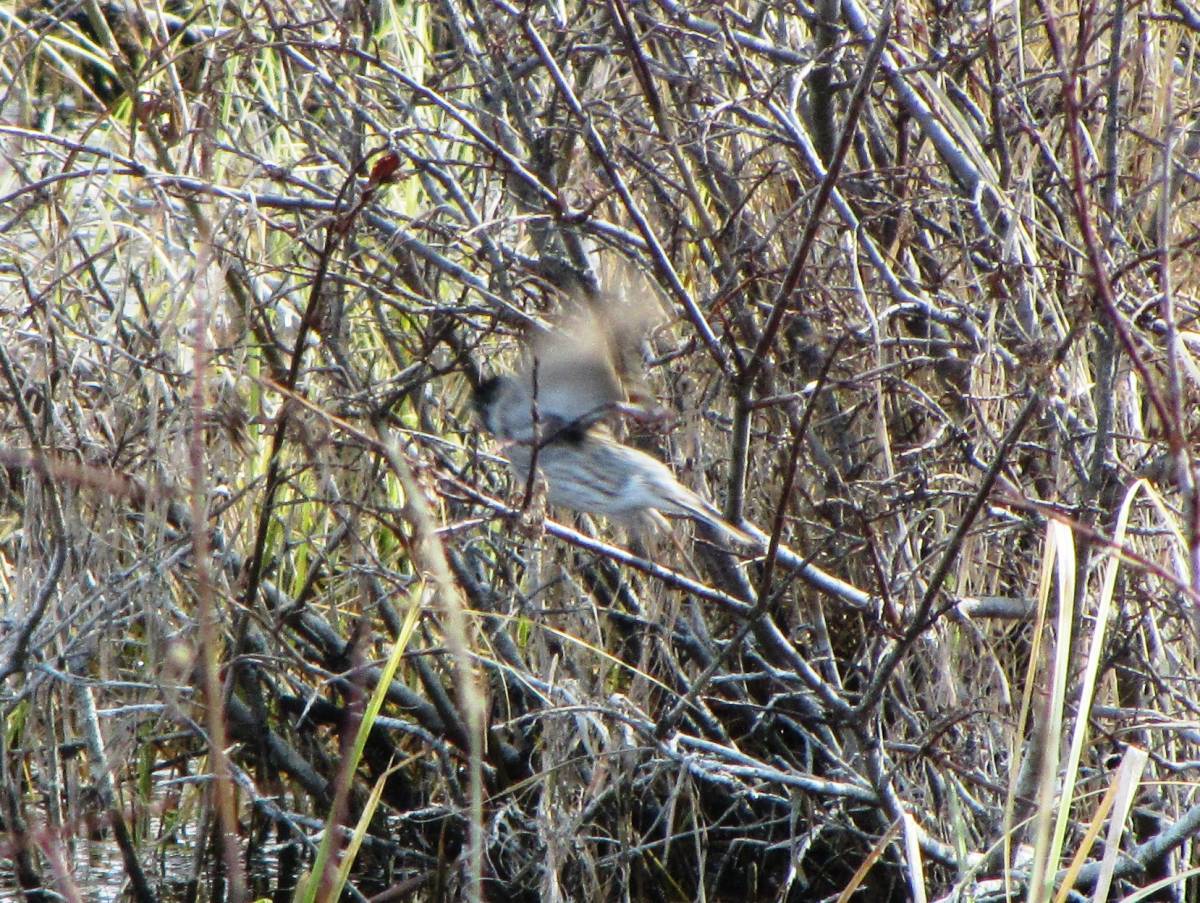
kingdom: Animalia
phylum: Chordata
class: Aves
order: Passeriformes
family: Emberizidae
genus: Emberiza
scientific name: Emberiza pallasi
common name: Pallas's reed bunting
